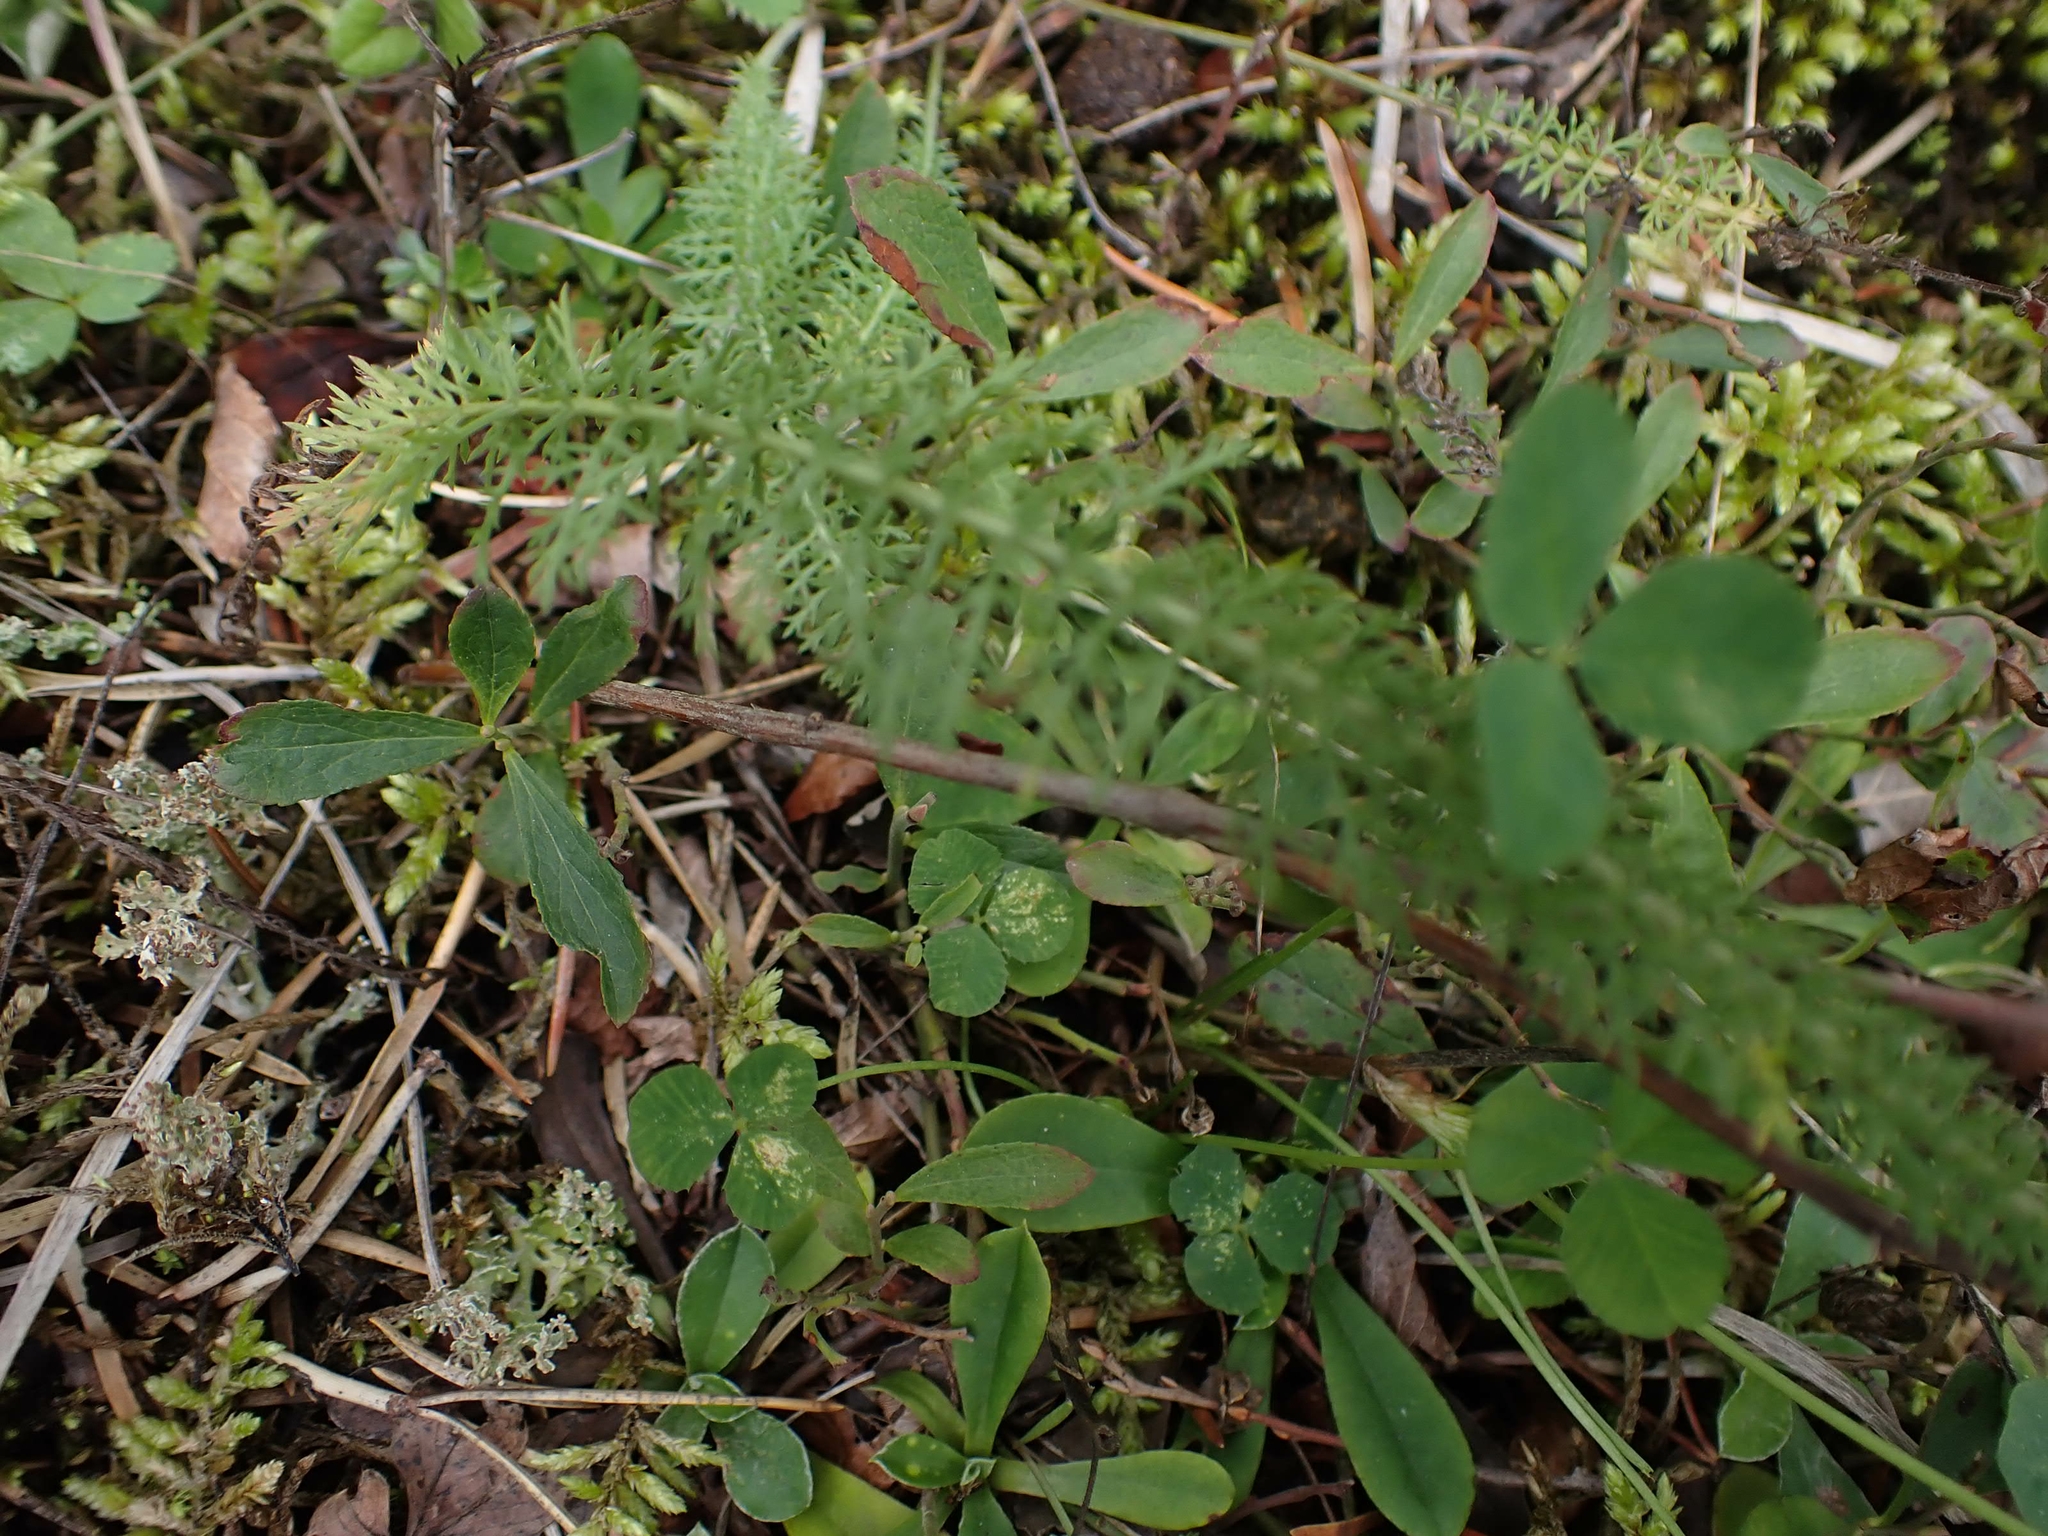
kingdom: Plantae
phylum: Tracheophyta
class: Magnoliopsida
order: Asterales
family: Asteraceae
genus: Achillea
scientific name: Achillea millefolium
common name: Yarrow
